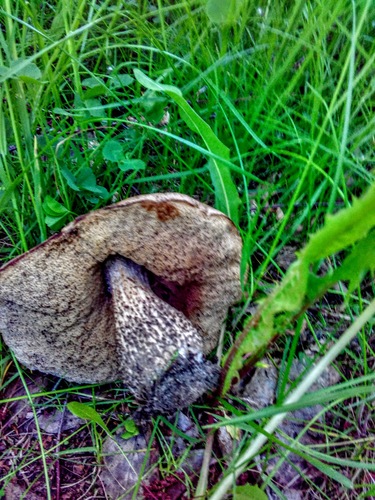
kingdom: Fungi
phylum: Basidiomycota
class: Agaricomycetes
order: Boletales
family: Boletaceae
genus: Leccinum
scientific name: Leccinum
